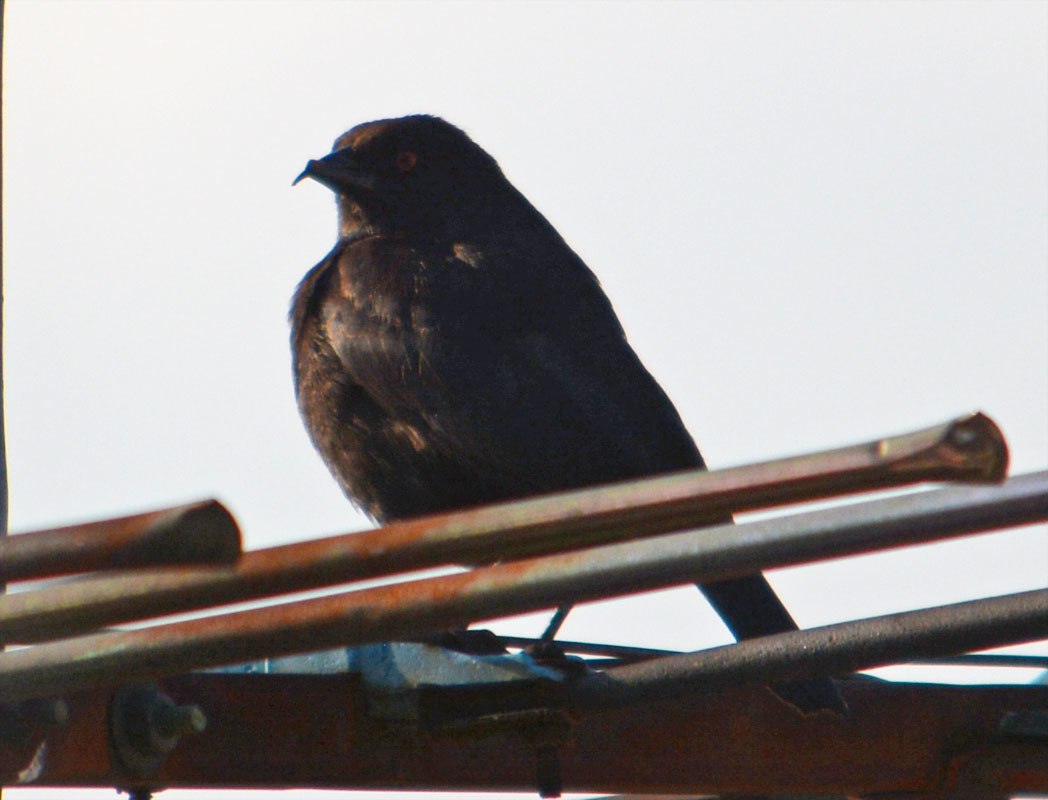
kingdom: Animalia
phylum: Chordata
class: Aves
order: Passeriformes
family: Icteridae
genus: Molothrus
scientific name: Molothrus aeneus
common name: Bronzed cowbird
